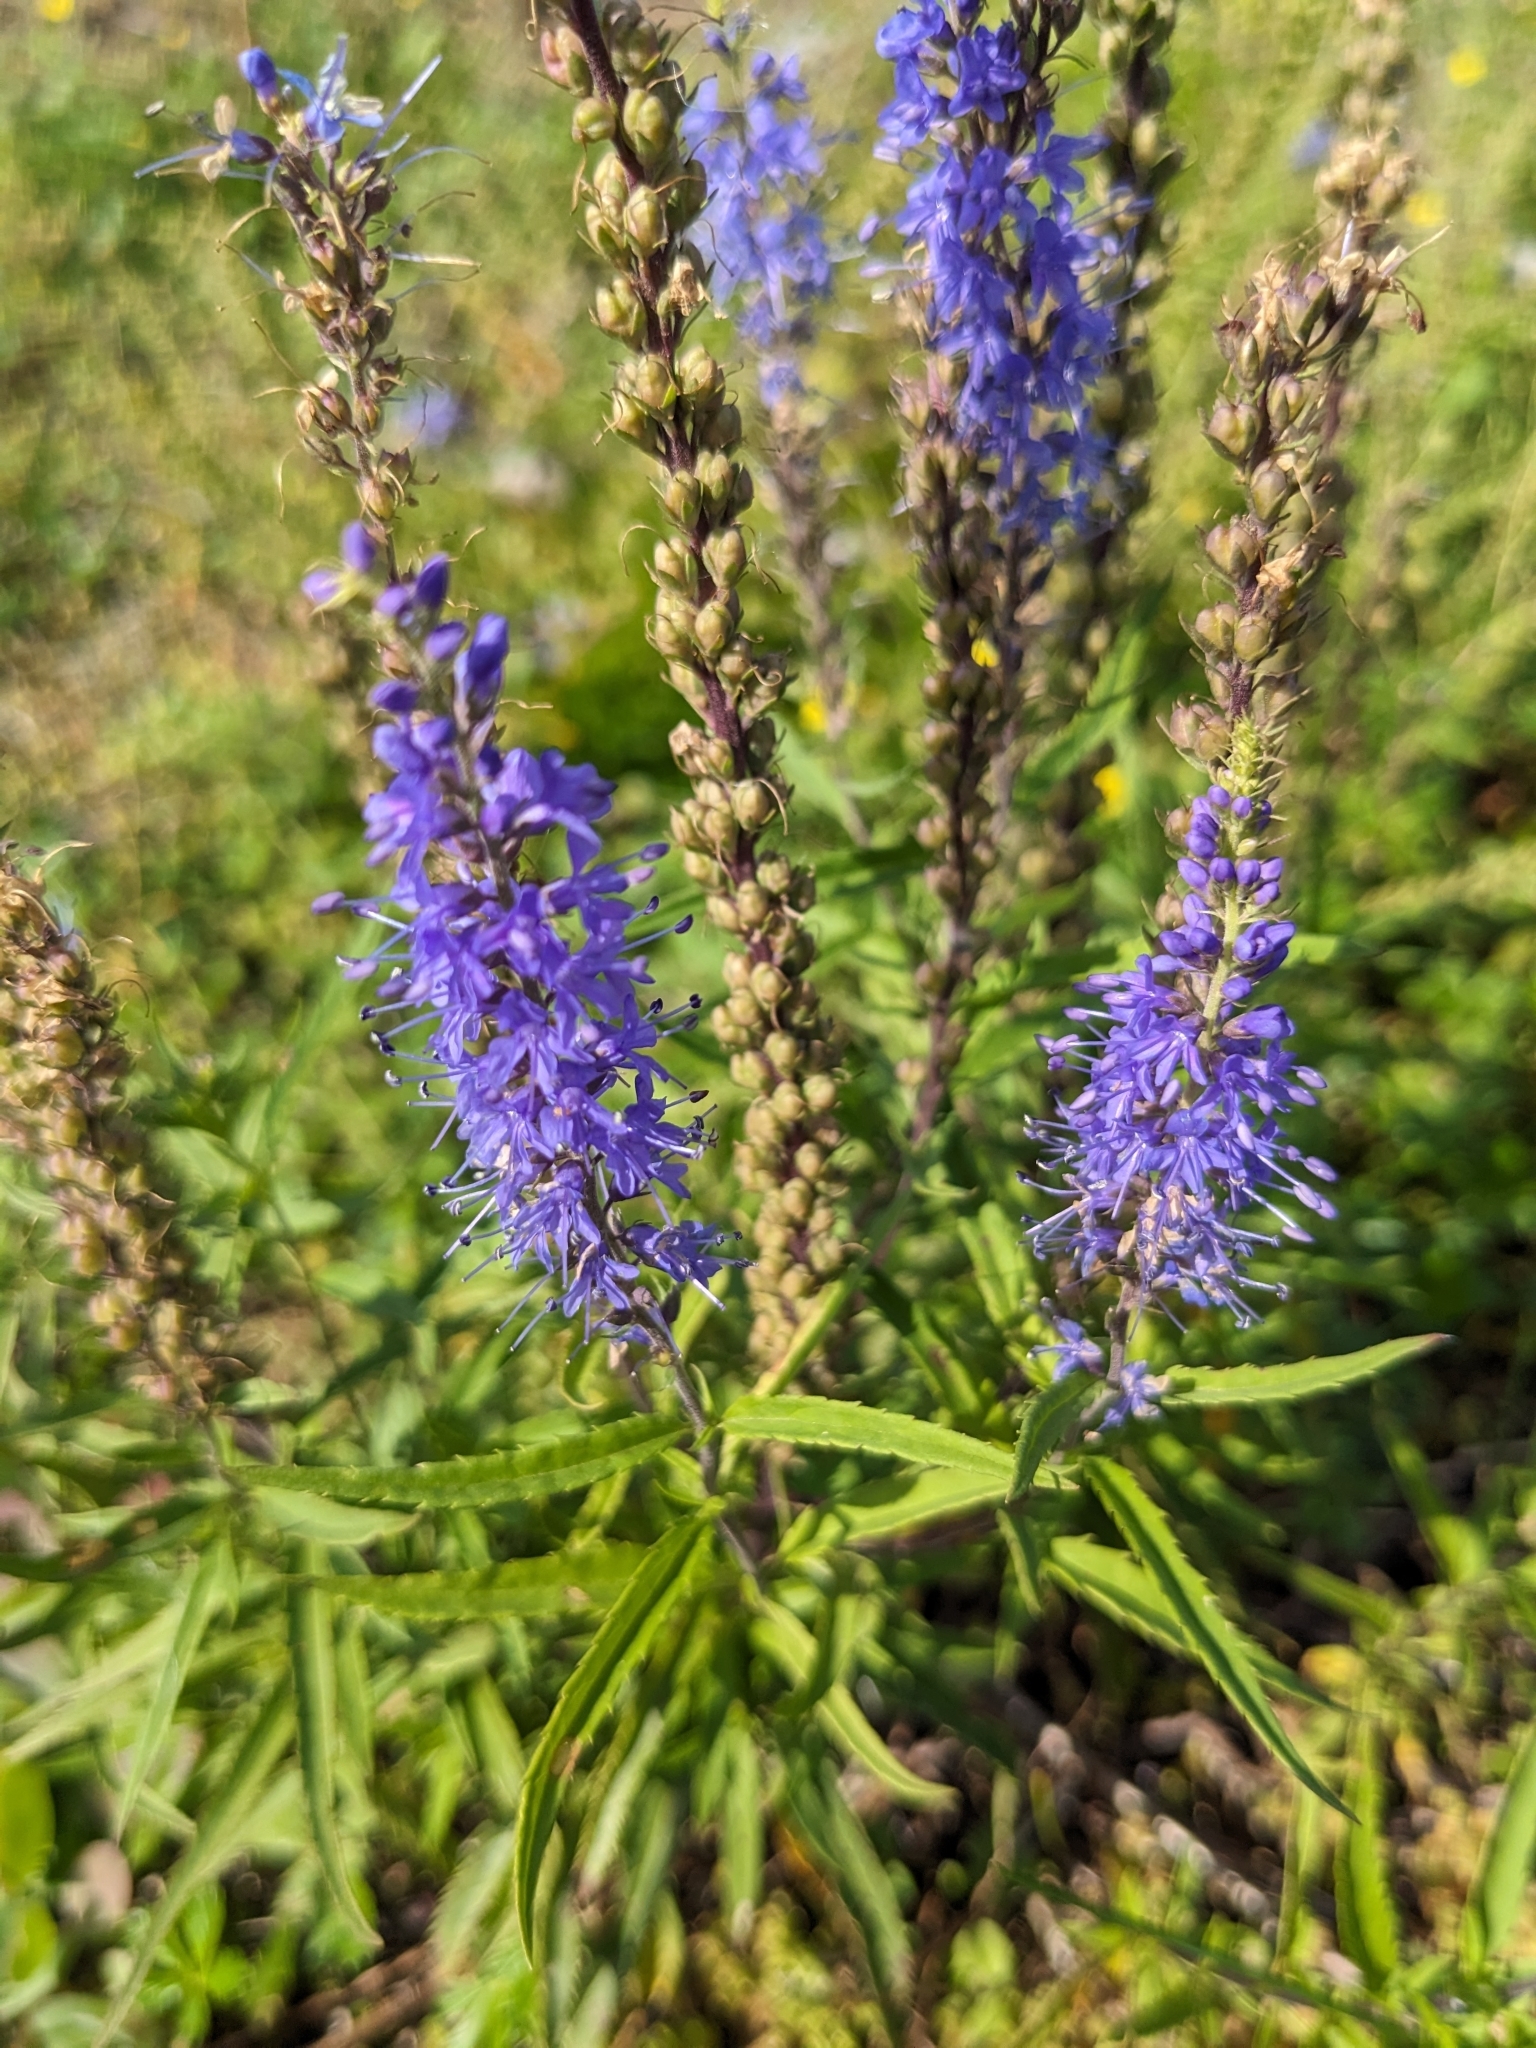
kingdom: Plantae
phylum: Tracheophyta
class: Magnoliopsida
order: Lamiales
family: Plantaginaceae
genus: Veronica
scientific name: Veronica longifolia
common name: Garden speedwell
